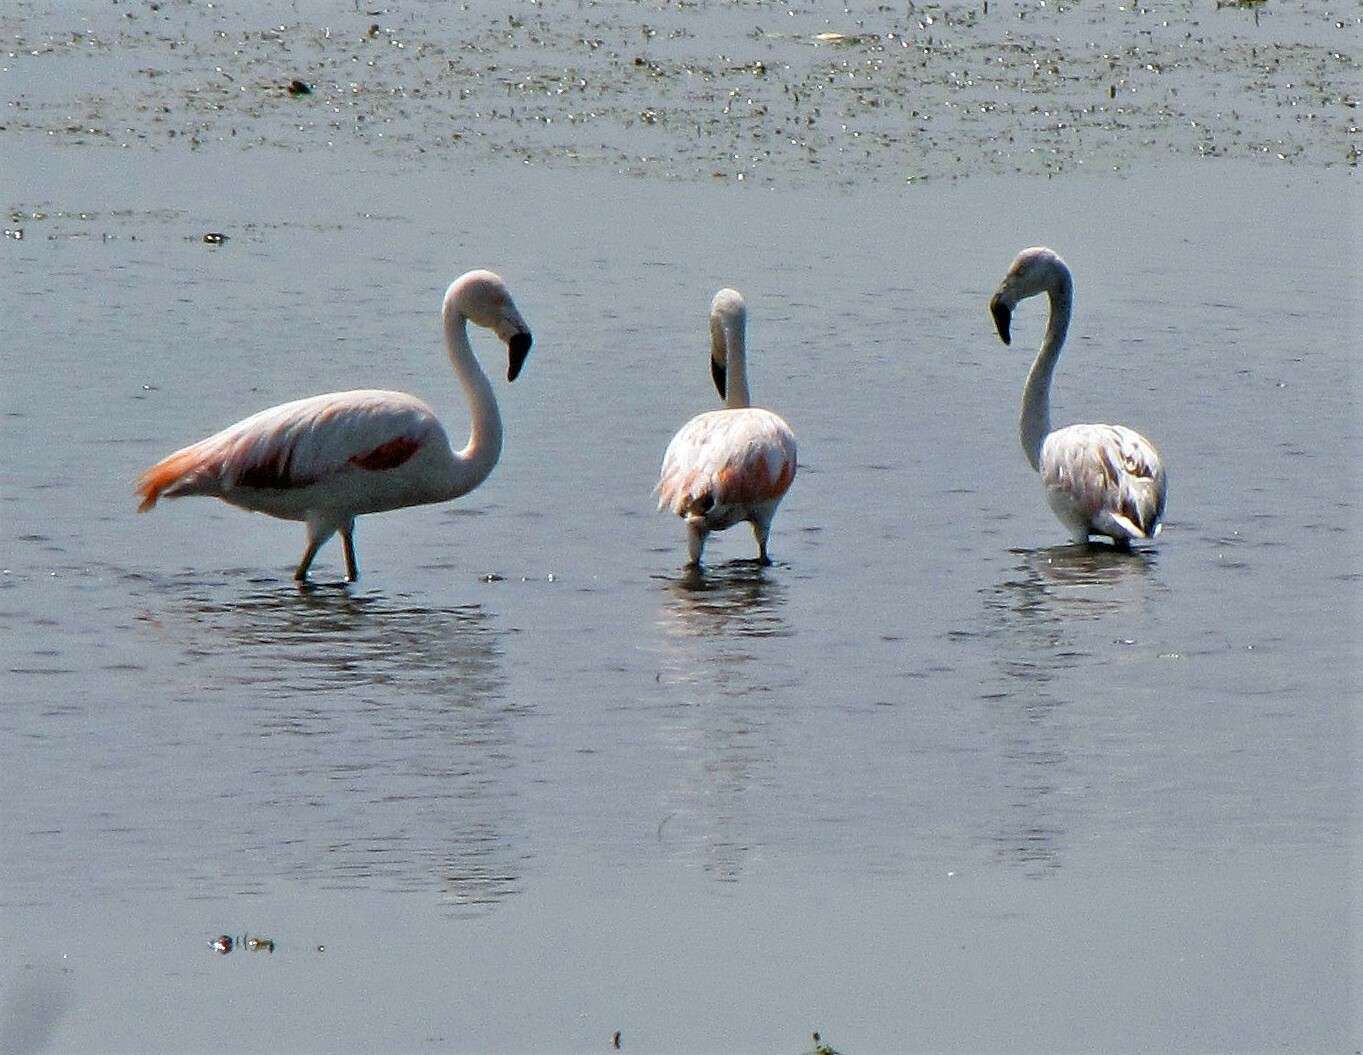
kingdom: Animalia
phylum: Chordata
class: Aves
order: Phoenicopteriformes
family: Phoenicopteridae
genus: Phoenicopterus
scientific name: Phoenicopterus chilensis
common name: Chilean flamingo
